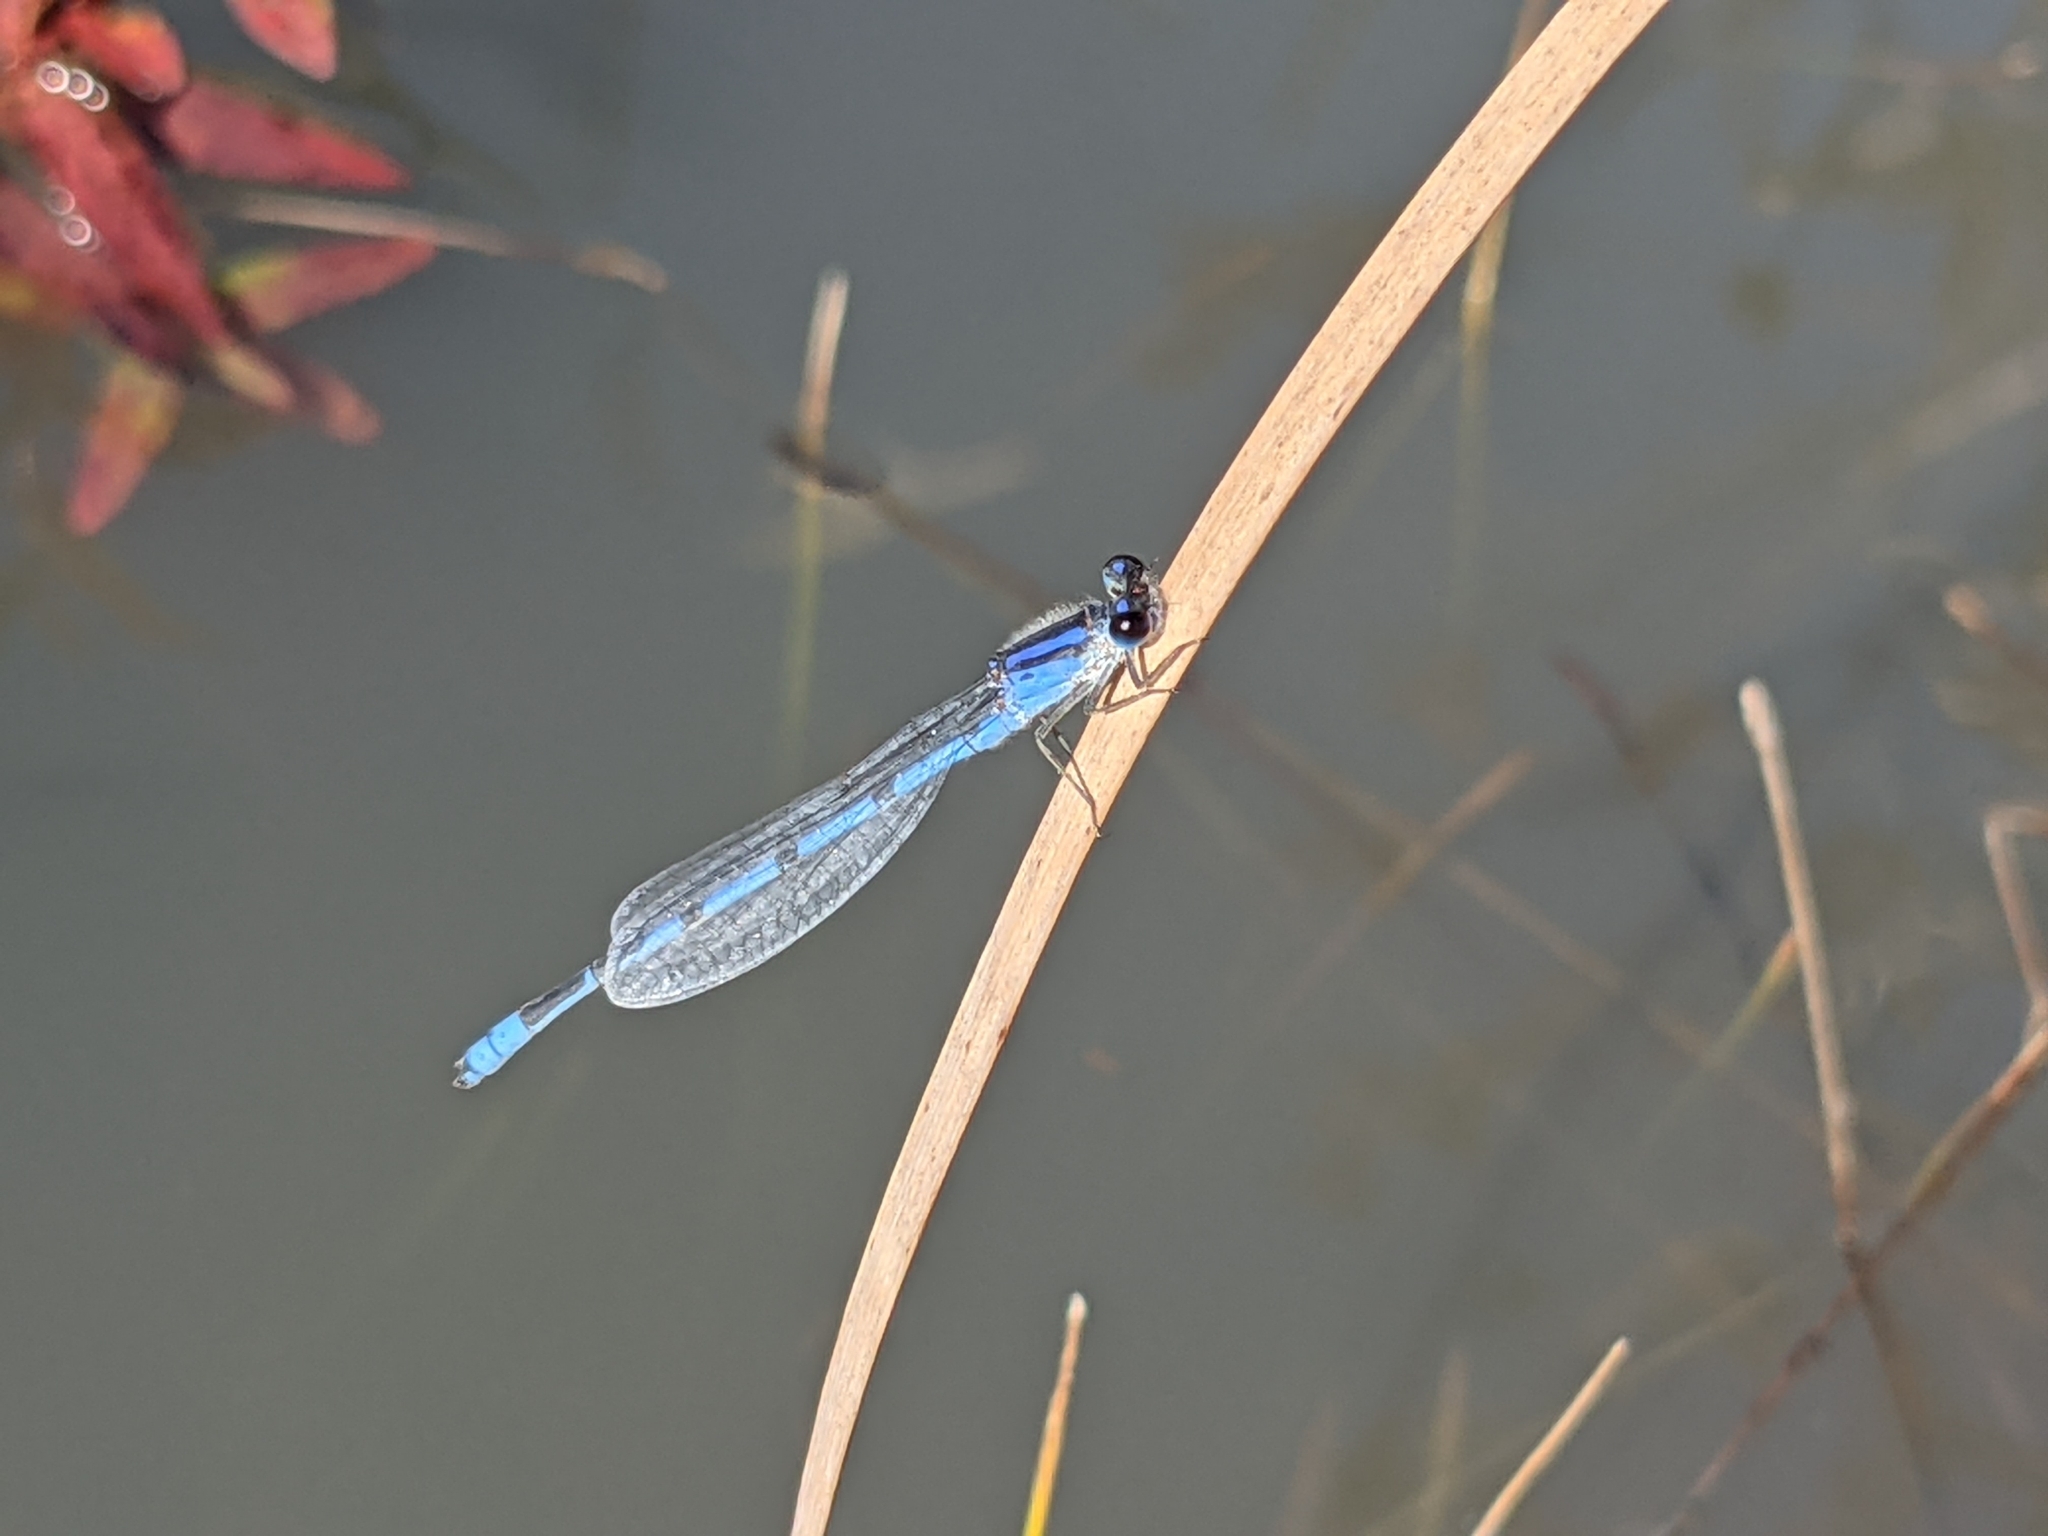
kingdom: Animalia
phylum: Arthropoda
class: Insecta
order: Odonata
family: Coenagrionidae
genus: Enallagma
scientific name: Enallagma civile
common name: Damselfly
